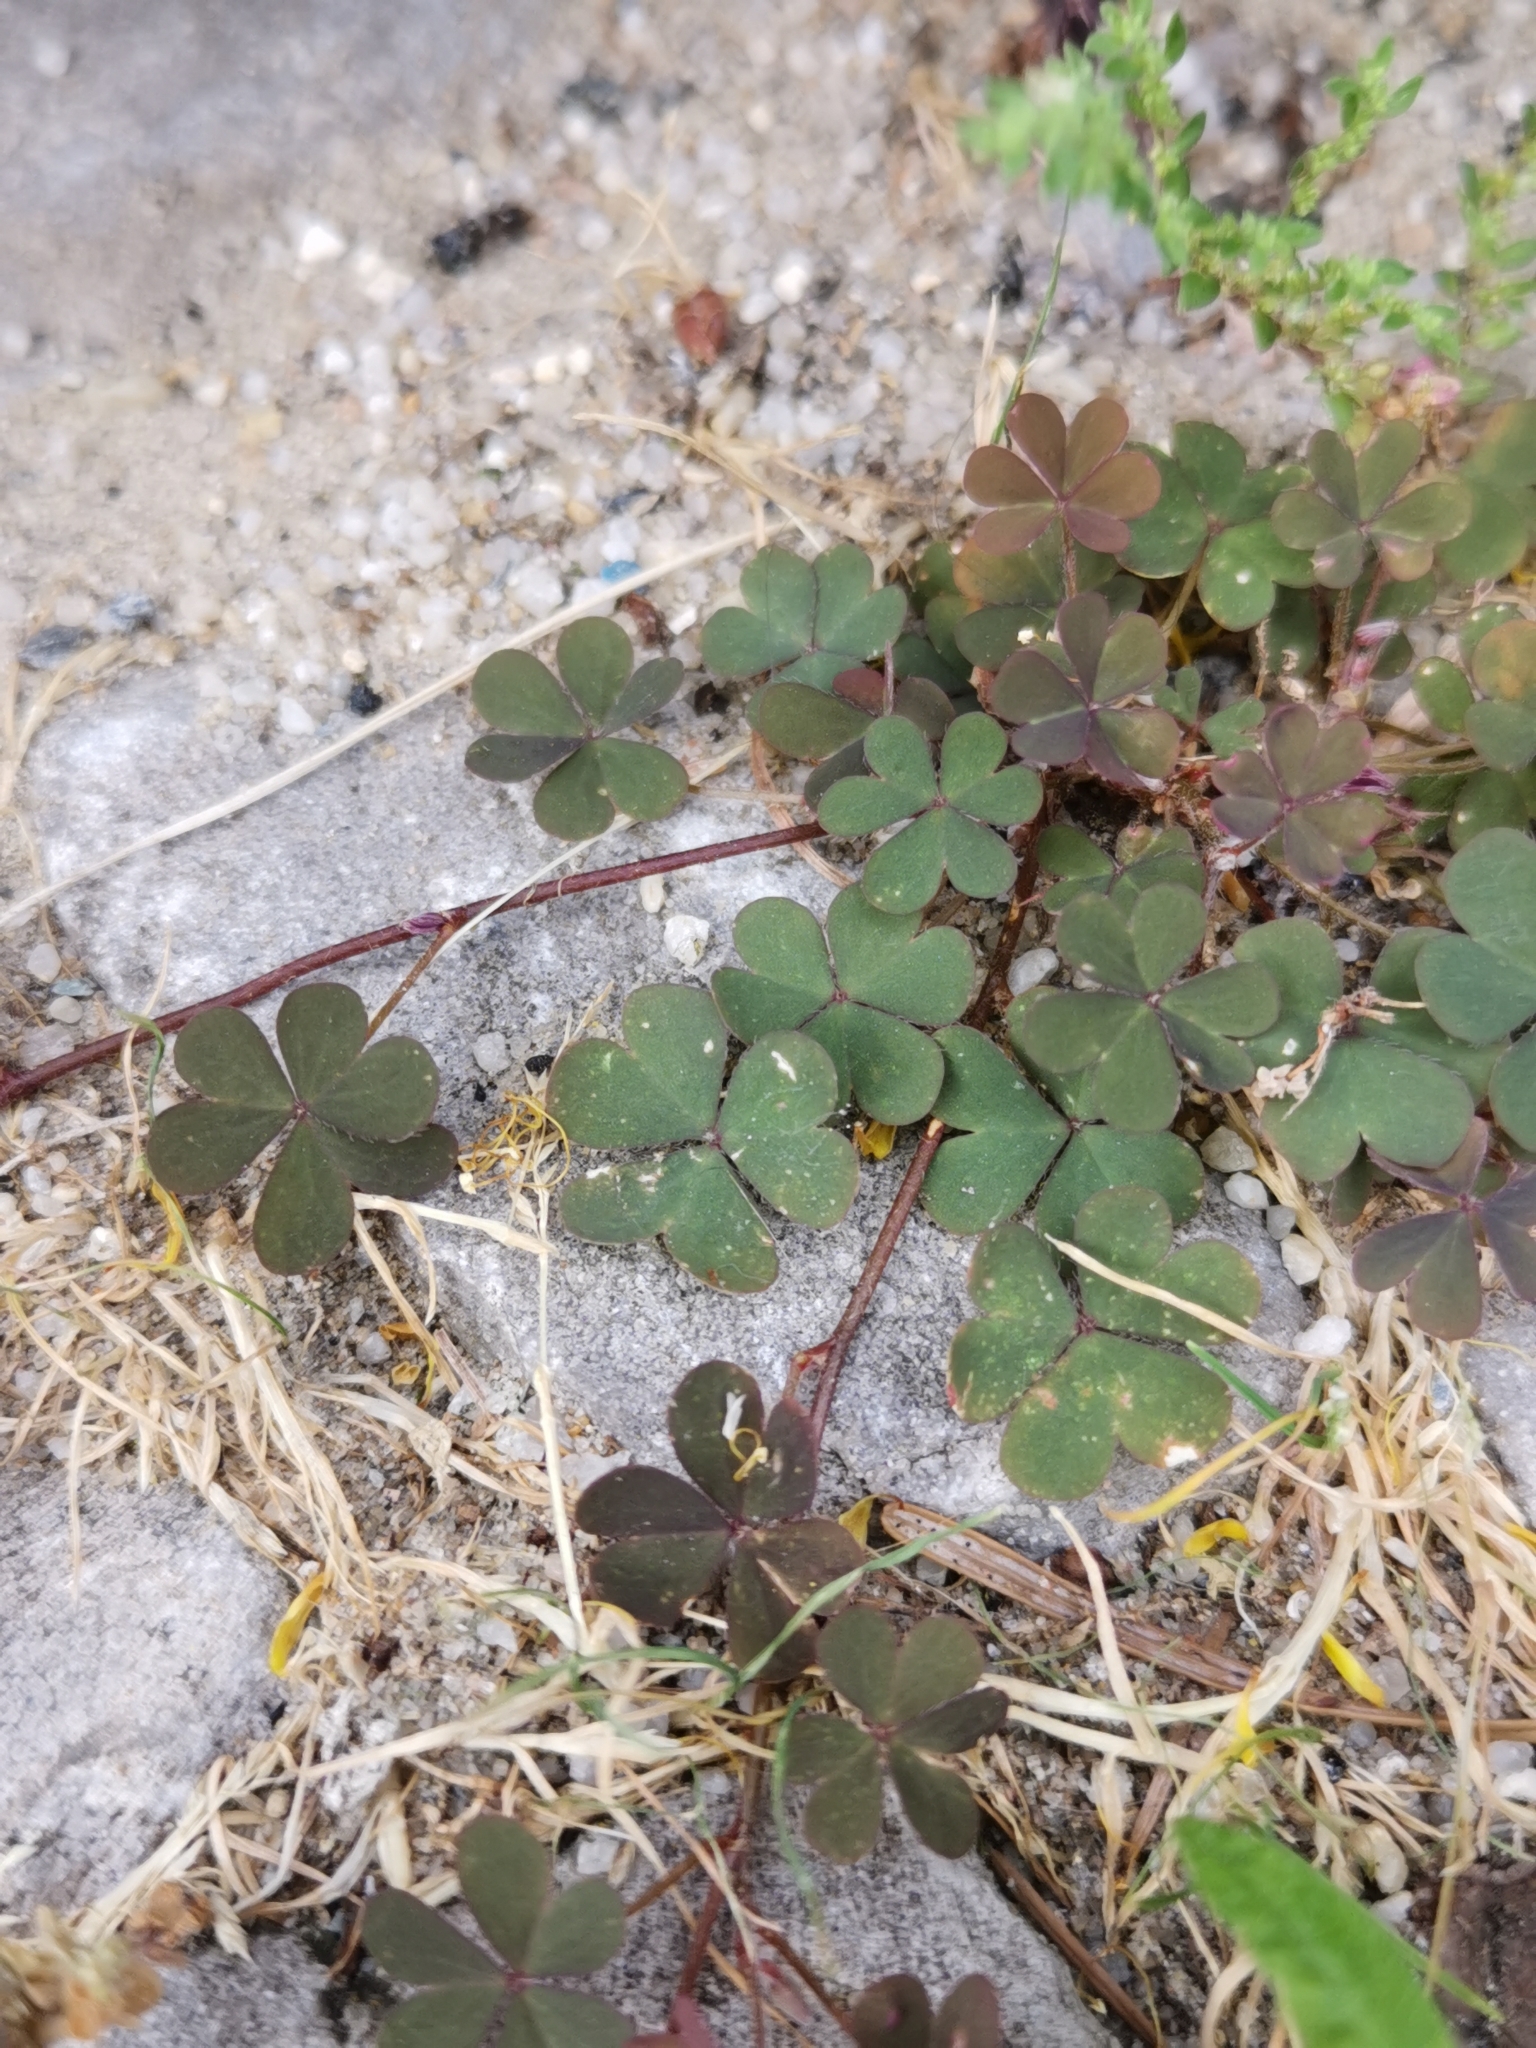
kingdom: Plantae
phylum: Tracheophyta
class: Magnoliopsida
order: Oxalidales
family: Oxalidaceae
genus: Oxalis
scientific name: Oxalis corniculata
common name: Procumbent yellow-sorrel
